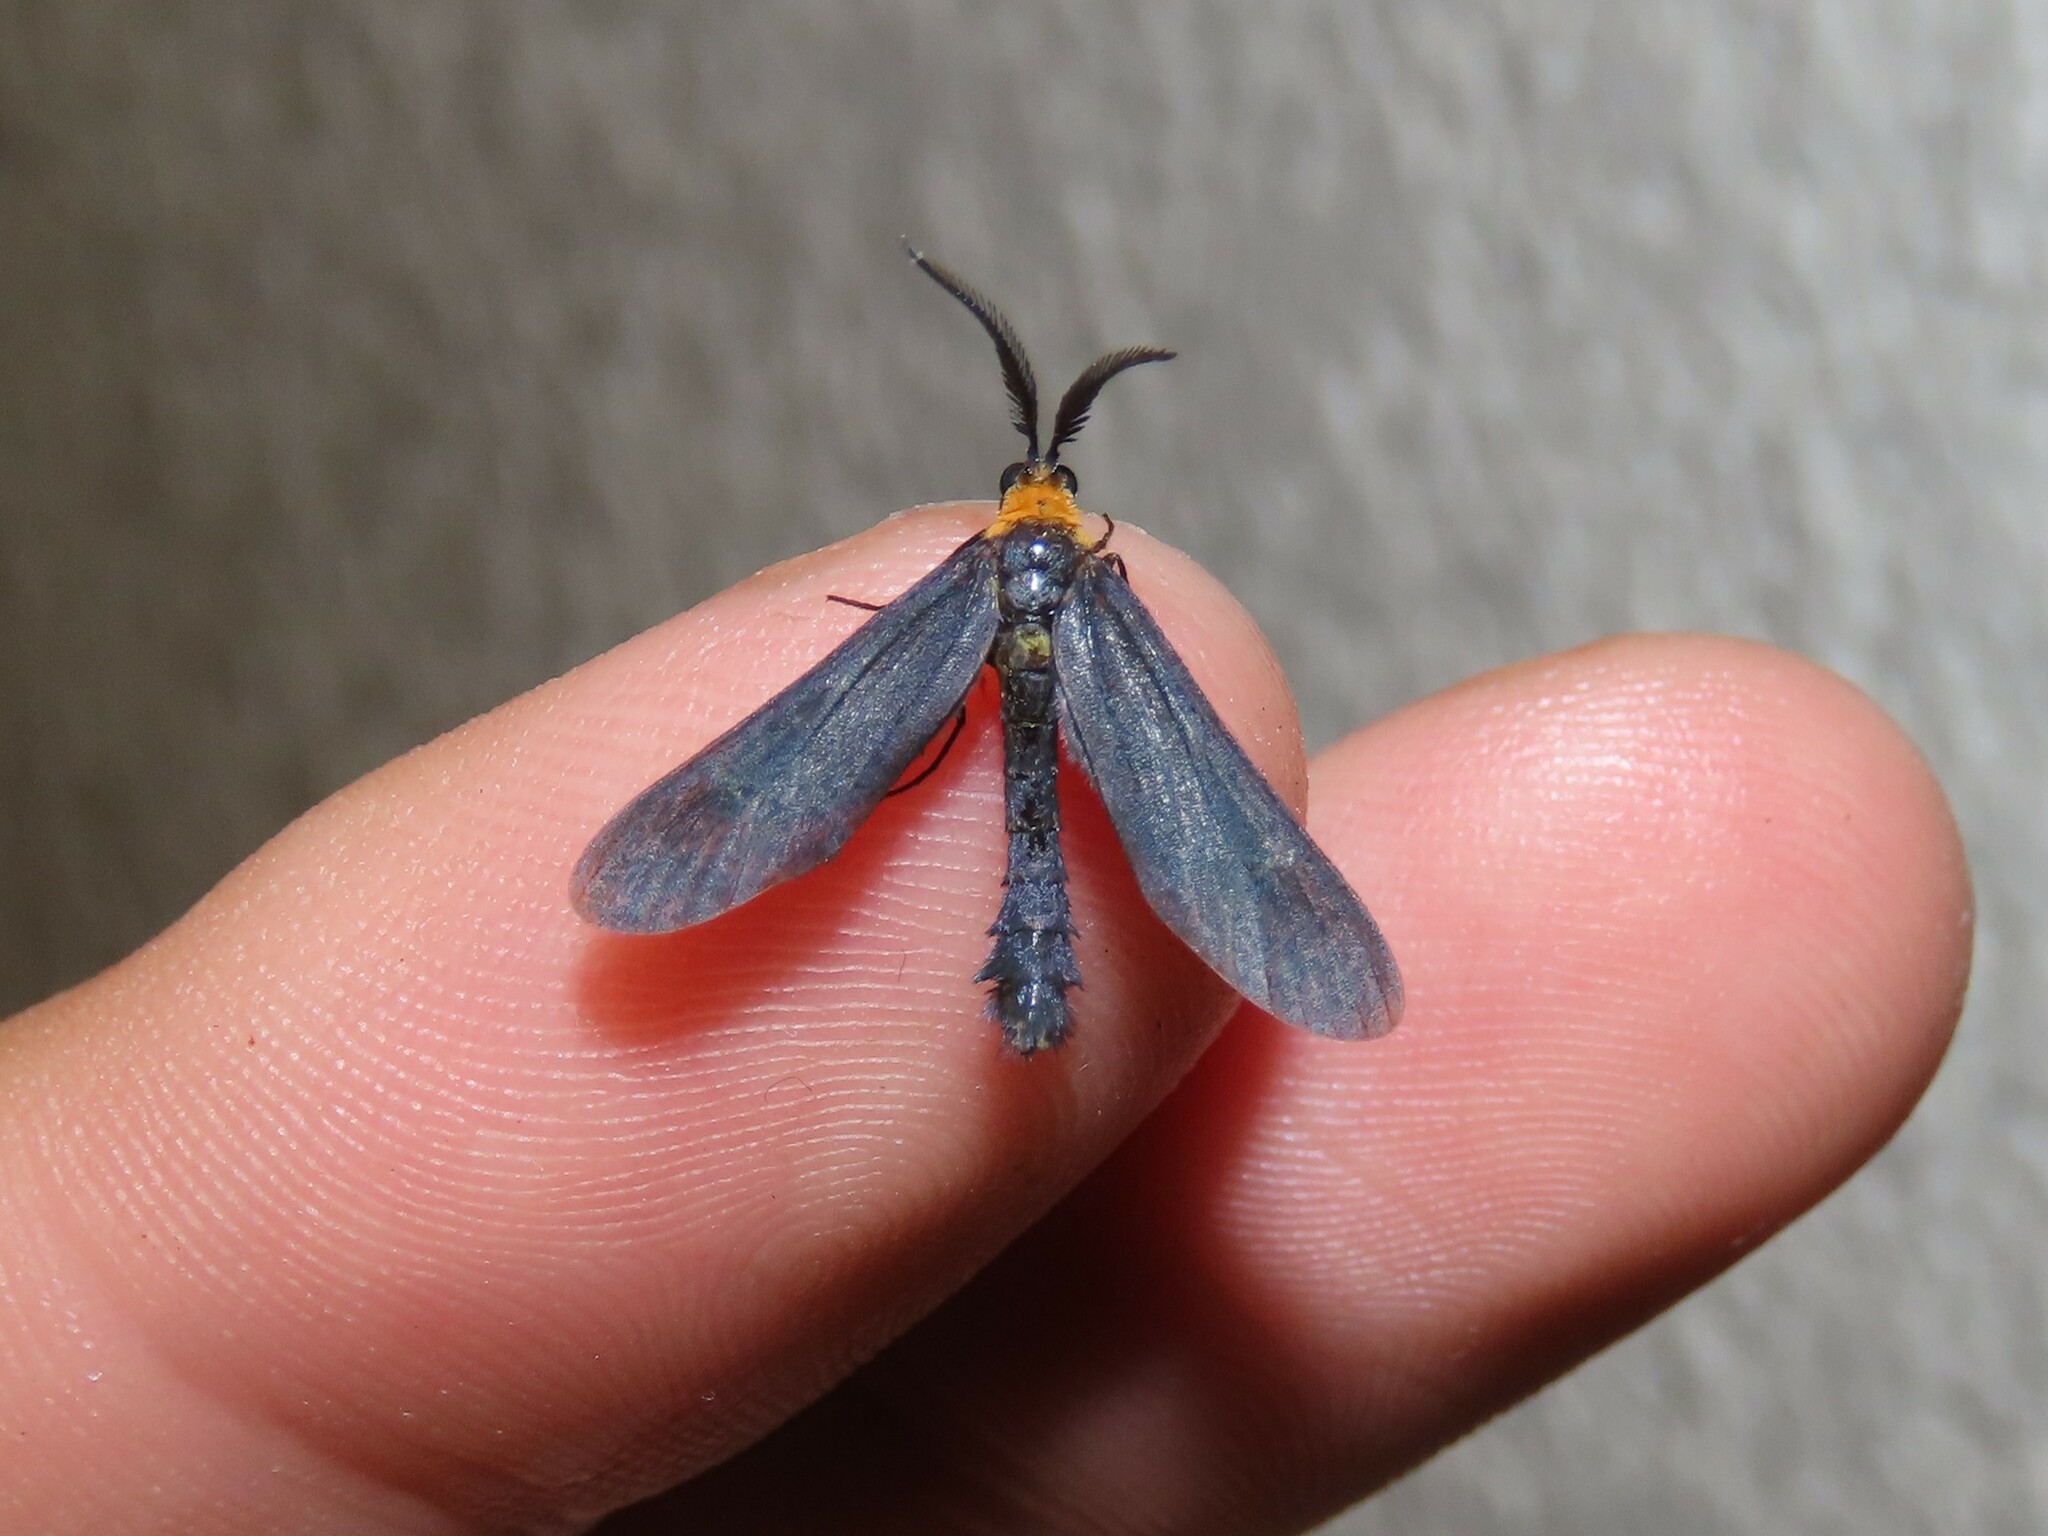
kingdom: Animalia
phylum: Arthropoda
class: Insecta
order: Lepidoptera
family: Zygaenidae
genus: Harrisina
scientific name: Harrisina americana
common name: Grapeleaf skeletonizer moth
